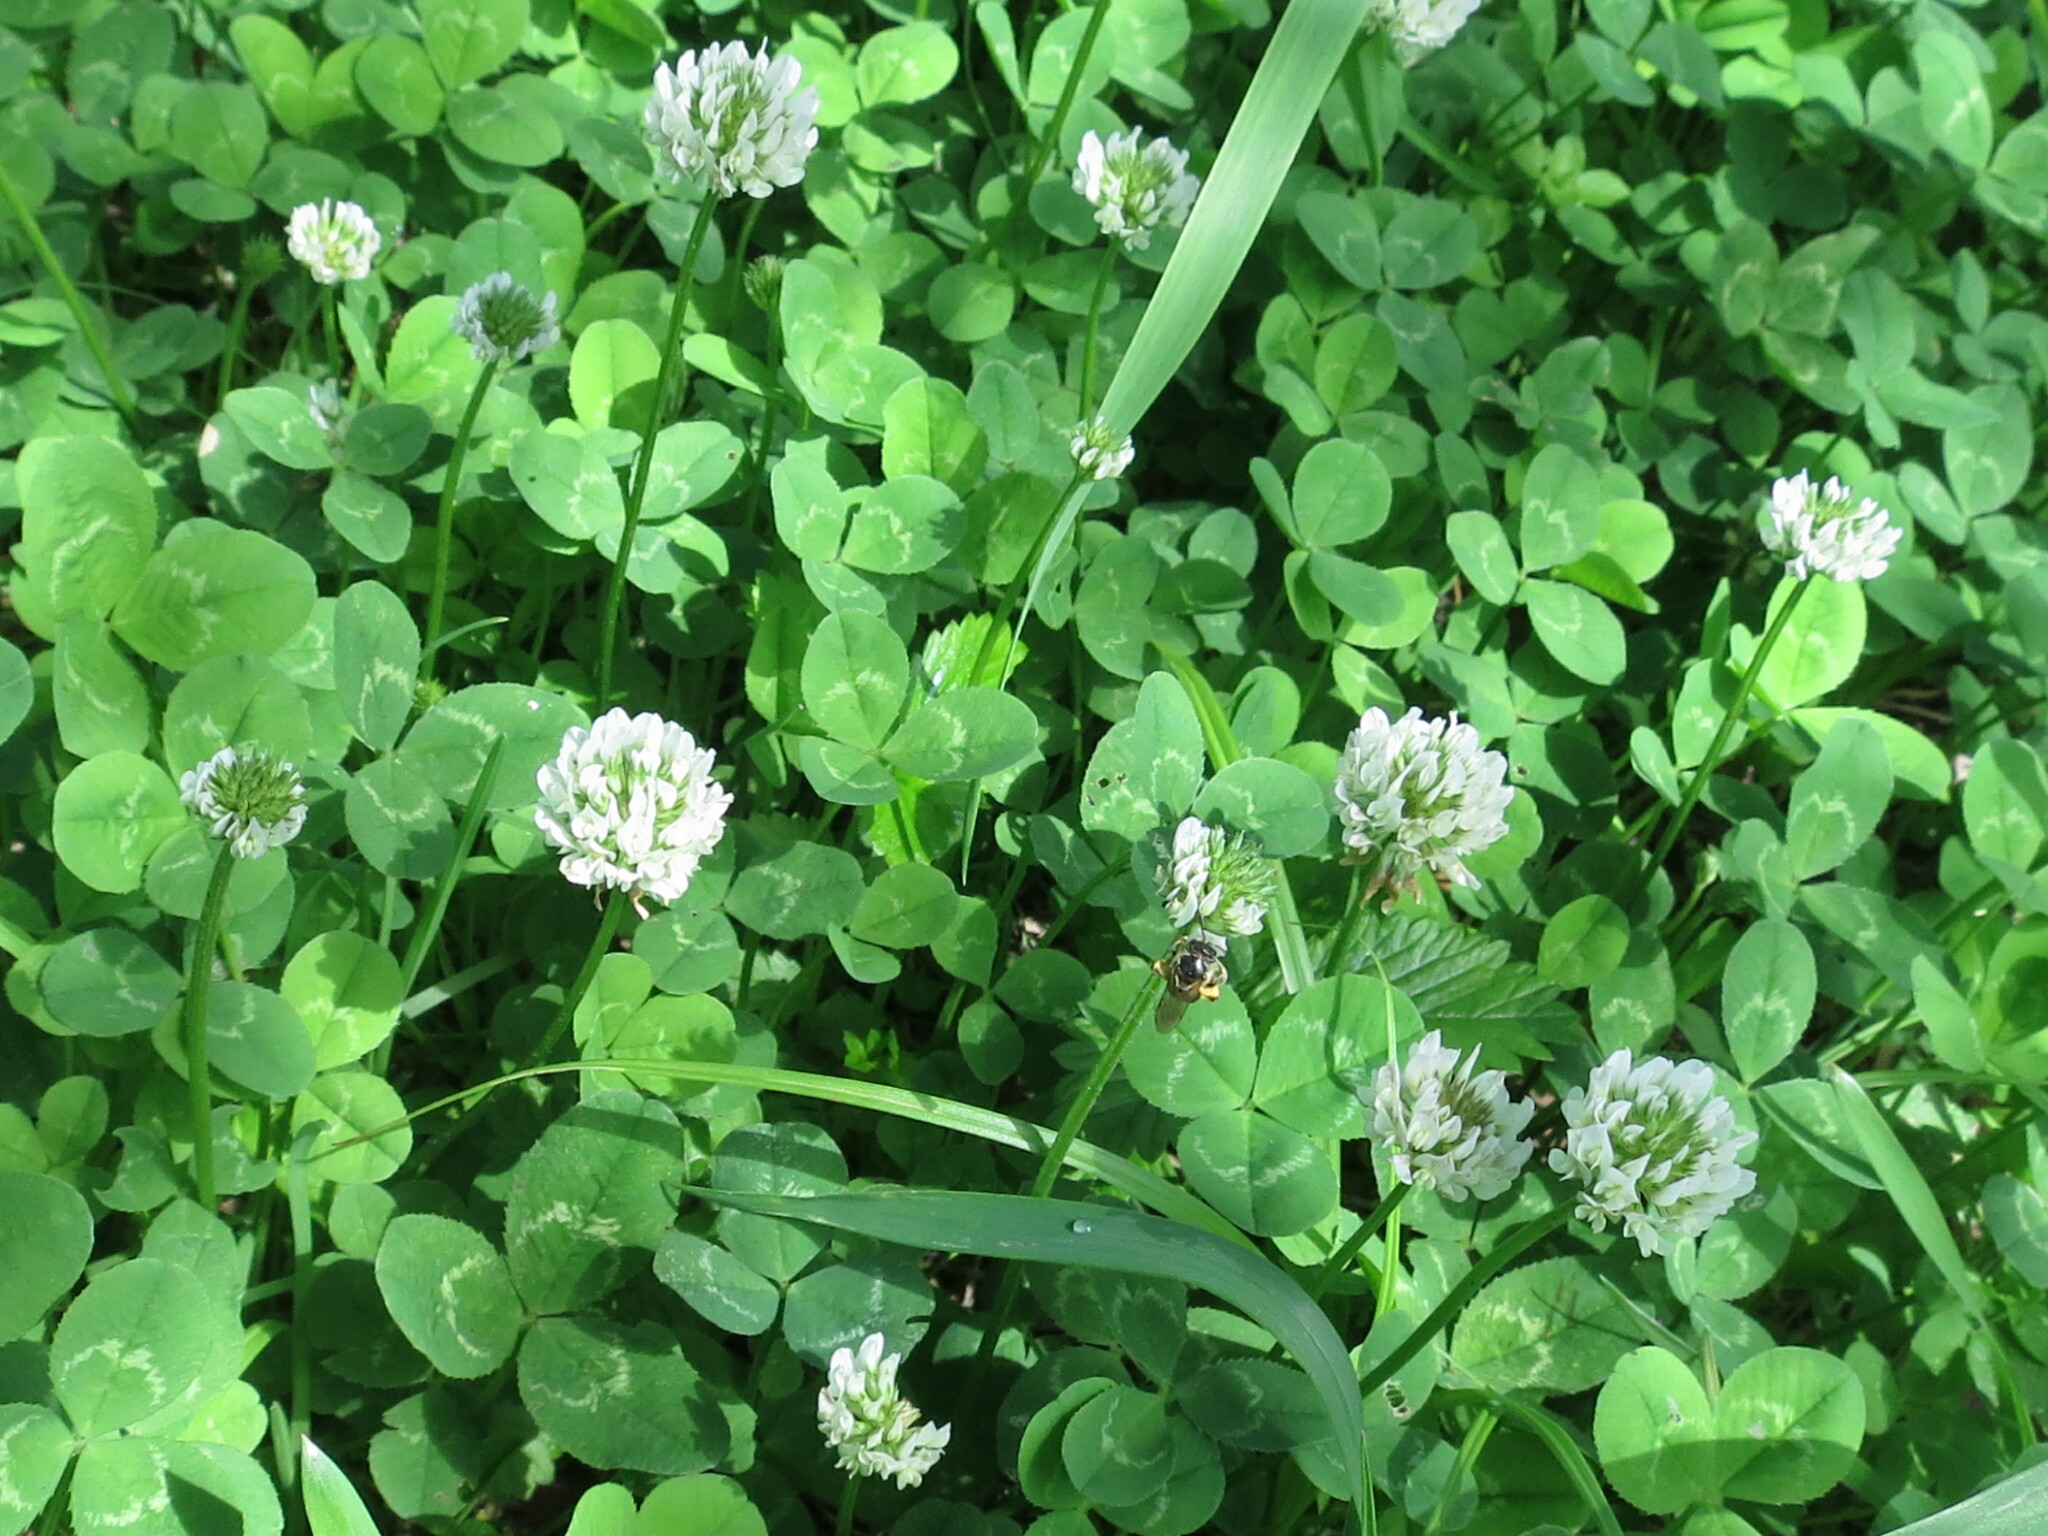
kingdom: Plantae
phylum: Tracheophyta
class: Magnoliopsida
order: Fabales
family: Fabaceae
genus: Trifolium
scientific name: Trifolium repens
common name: White clover
